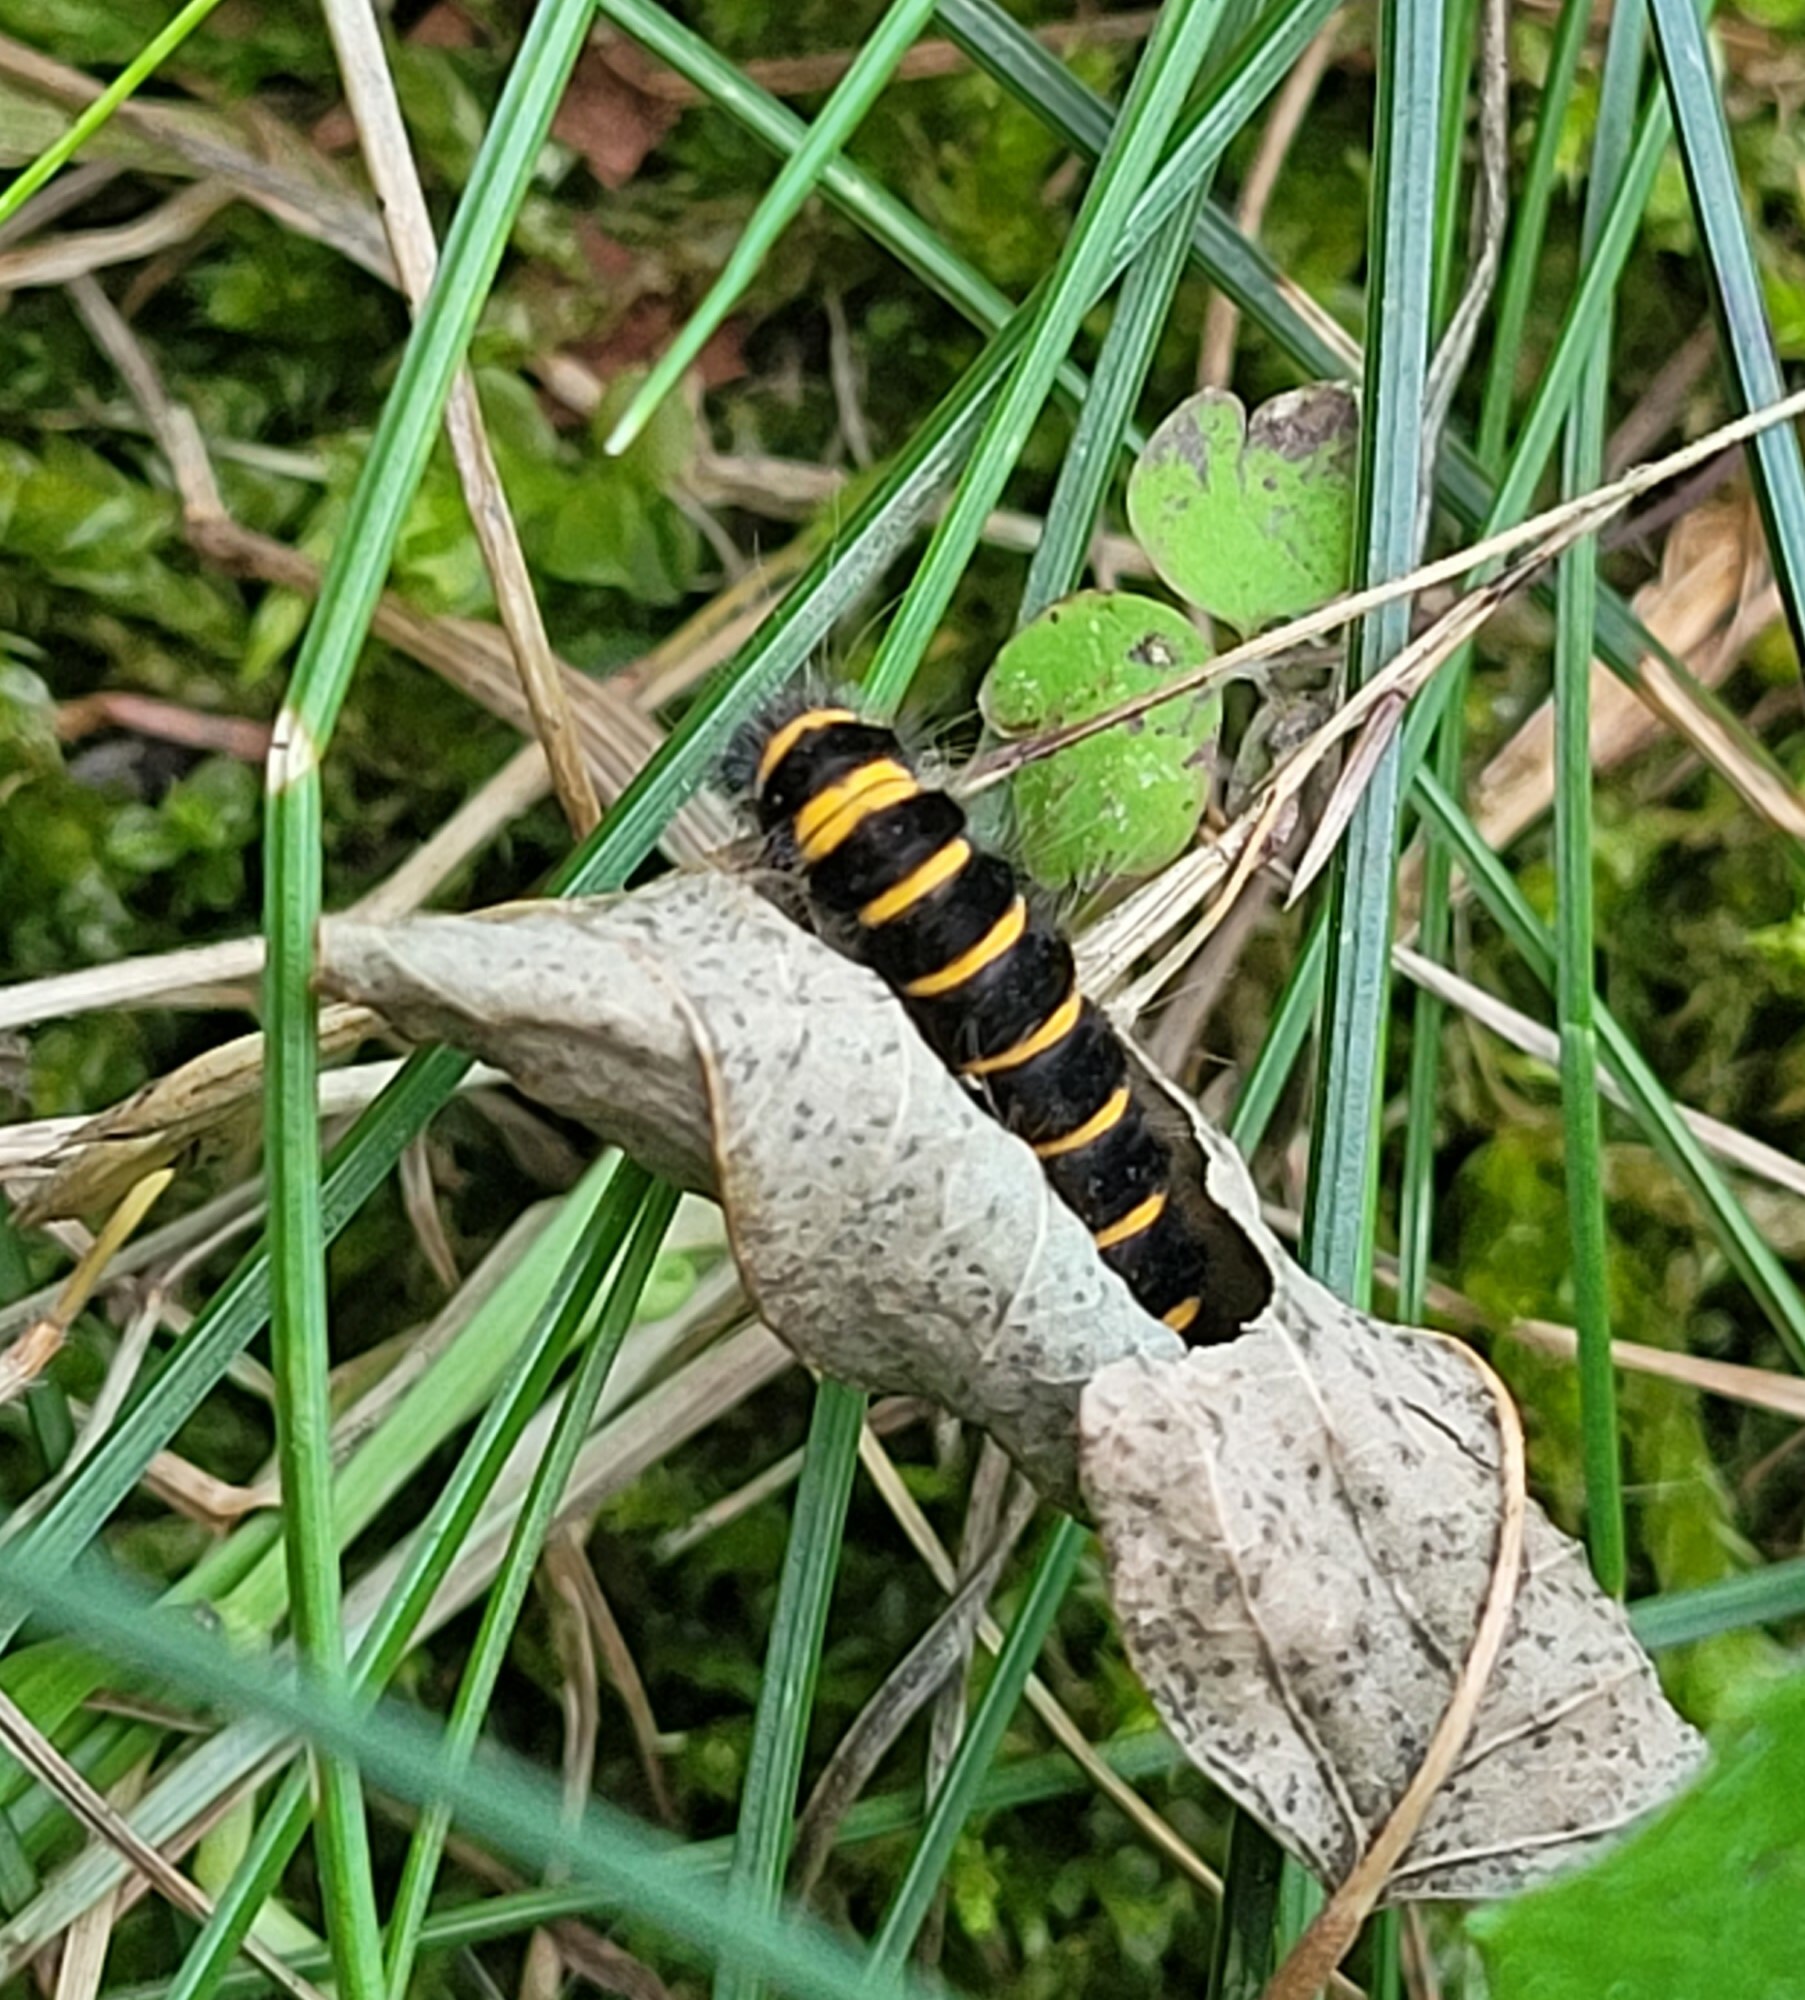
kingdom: Animalia
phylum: Arthropoda
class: Insecta
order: Lepidoptera
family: Erebidae
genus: Tyria
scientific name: Tyria jacobaeae
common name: Cinnabar
